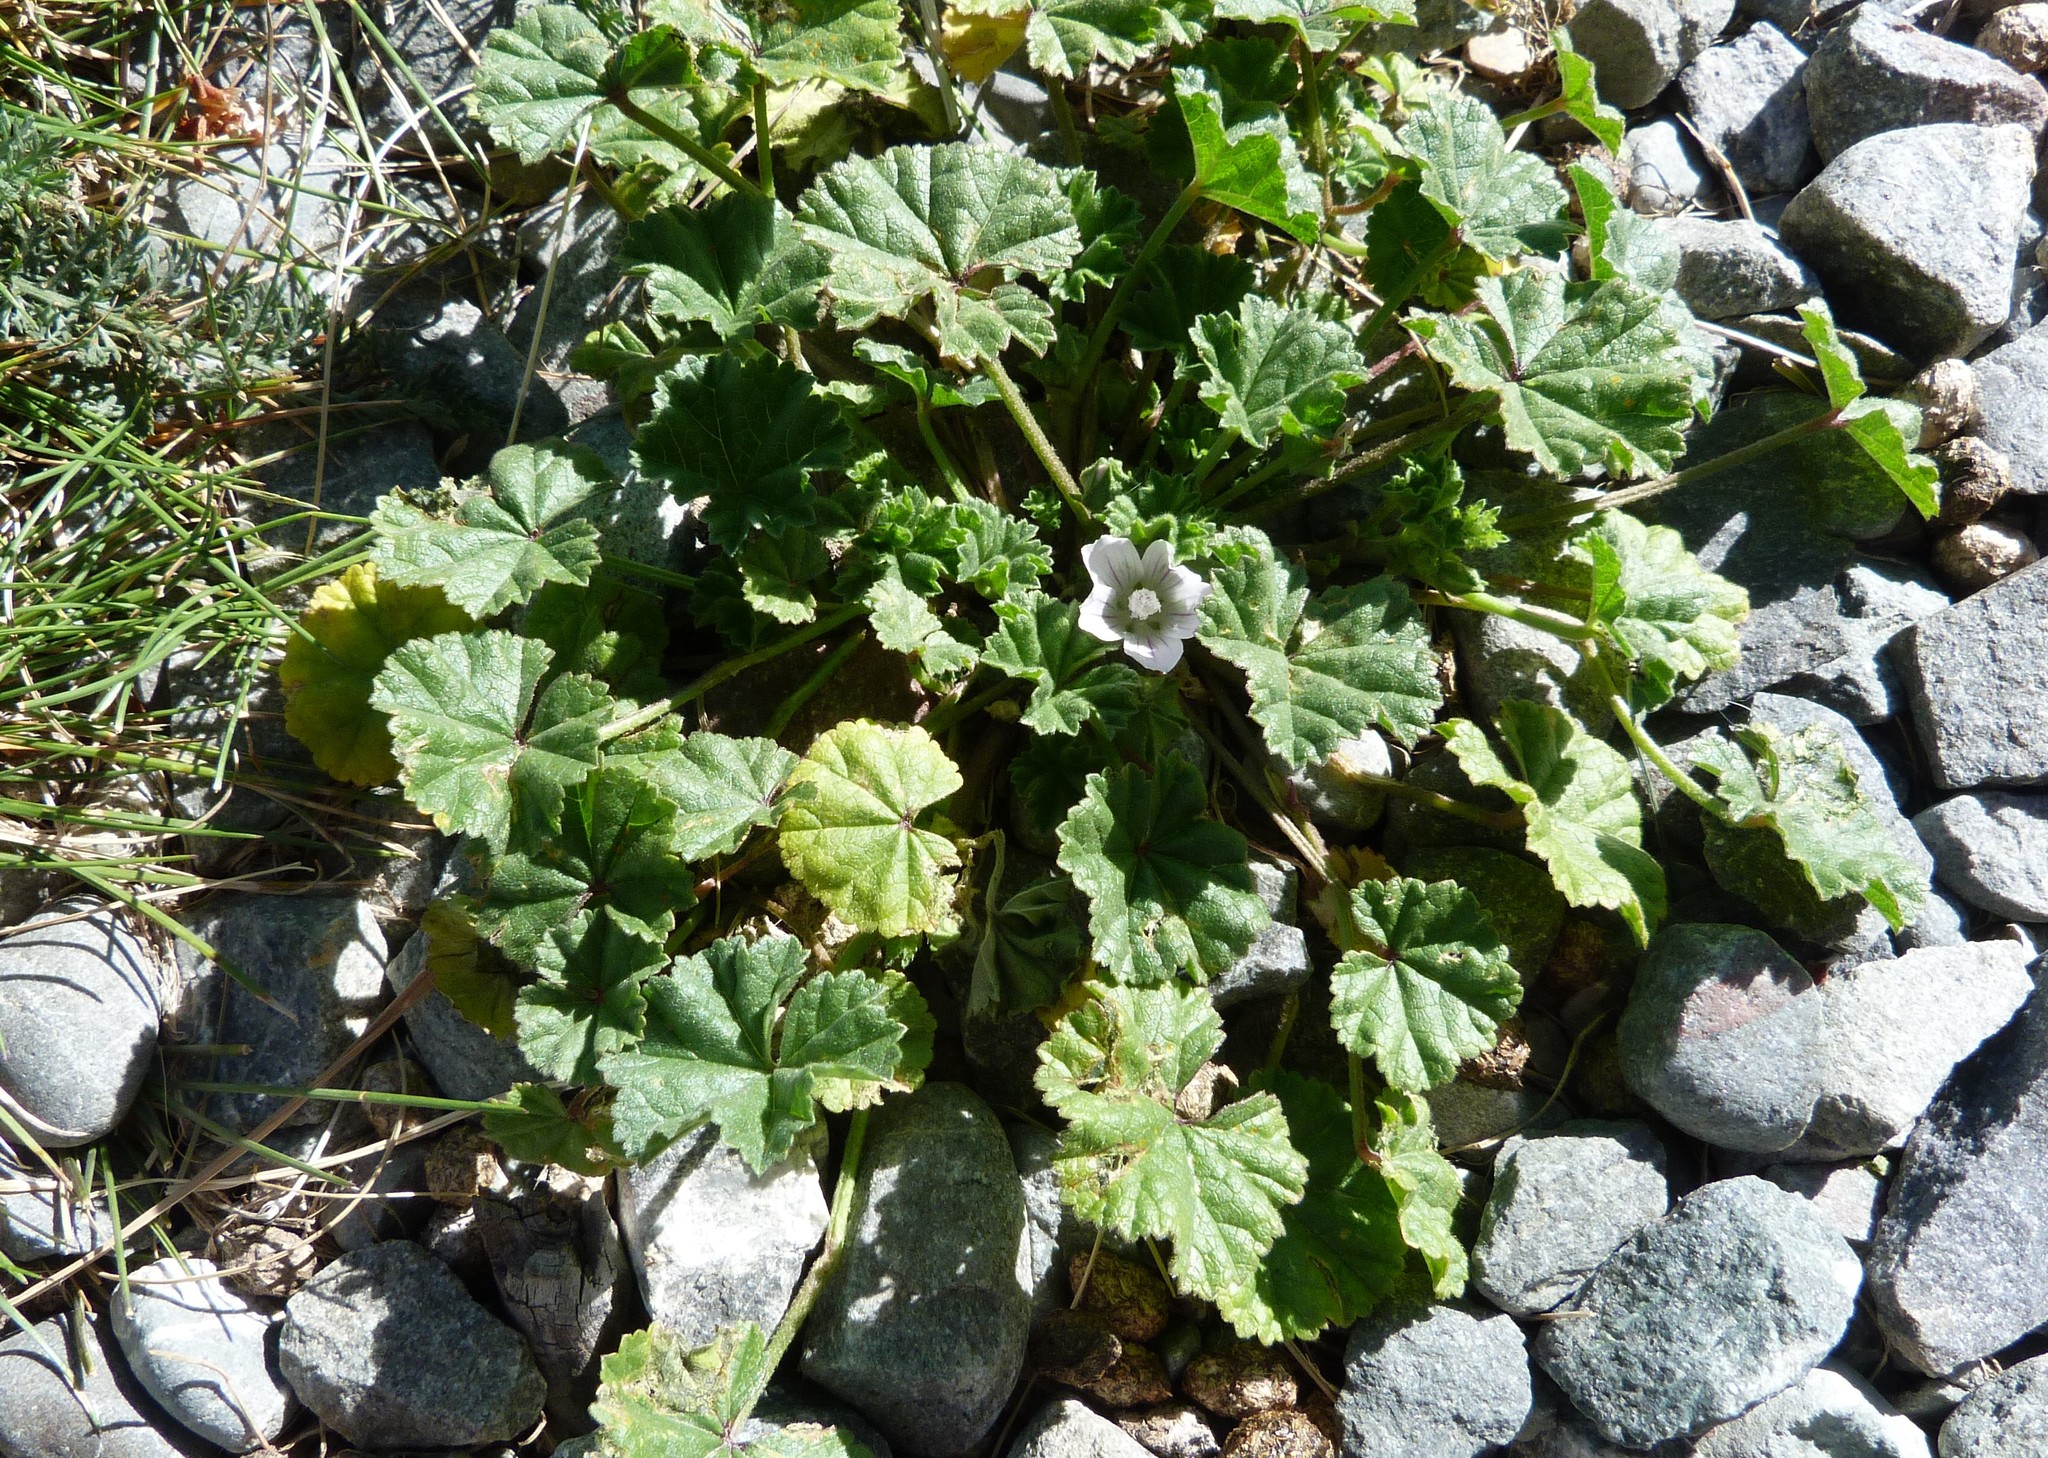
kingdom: Plantae
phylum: Tracheophyta
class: Magnoliopsida
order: Malvales
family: Malvaceae
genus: Malva
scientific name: Malva neglecta
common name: Common mallow
